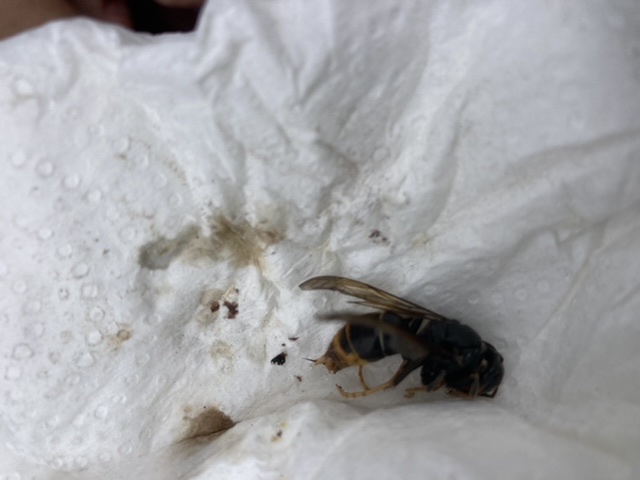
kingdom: Animalia
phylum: Arthropoda
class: Insecta
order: Hymenoptera
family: Vespidae
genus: Vespa
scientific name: Vespa velutina
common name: Asian hornet
